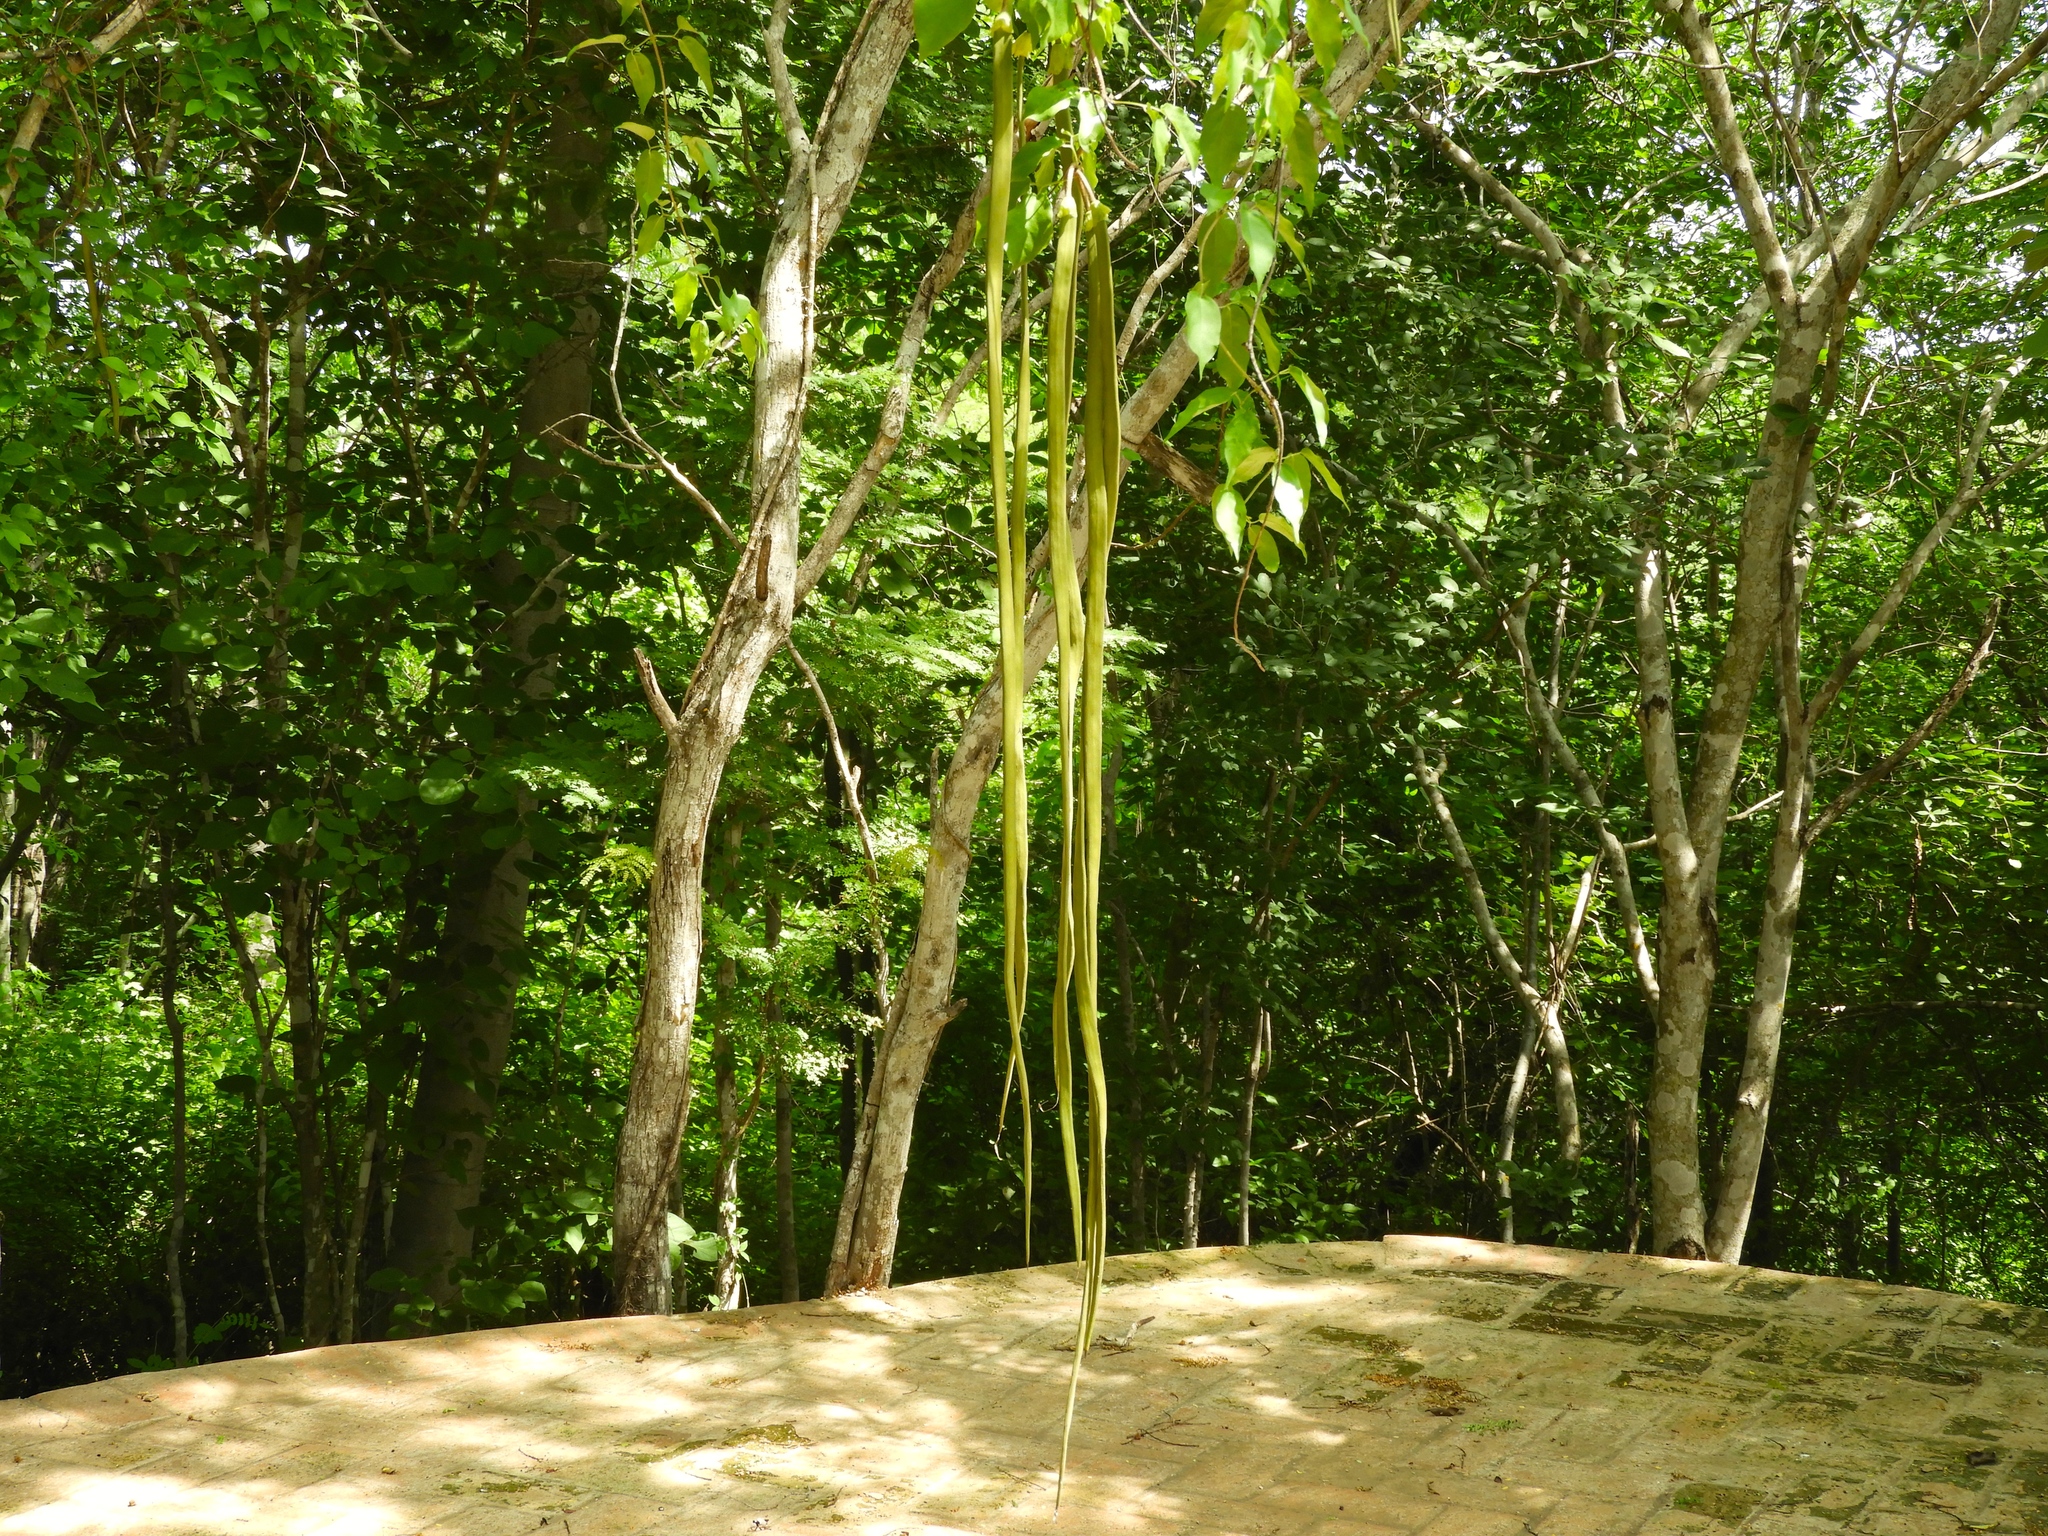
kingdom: Plantae
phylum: Tracheophyta
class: Magnoliopsida
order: Lamiales
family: Bignoniaceae
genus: Dolichandra
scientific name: Dolichandra unguis-cati
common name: Catclaw vine
